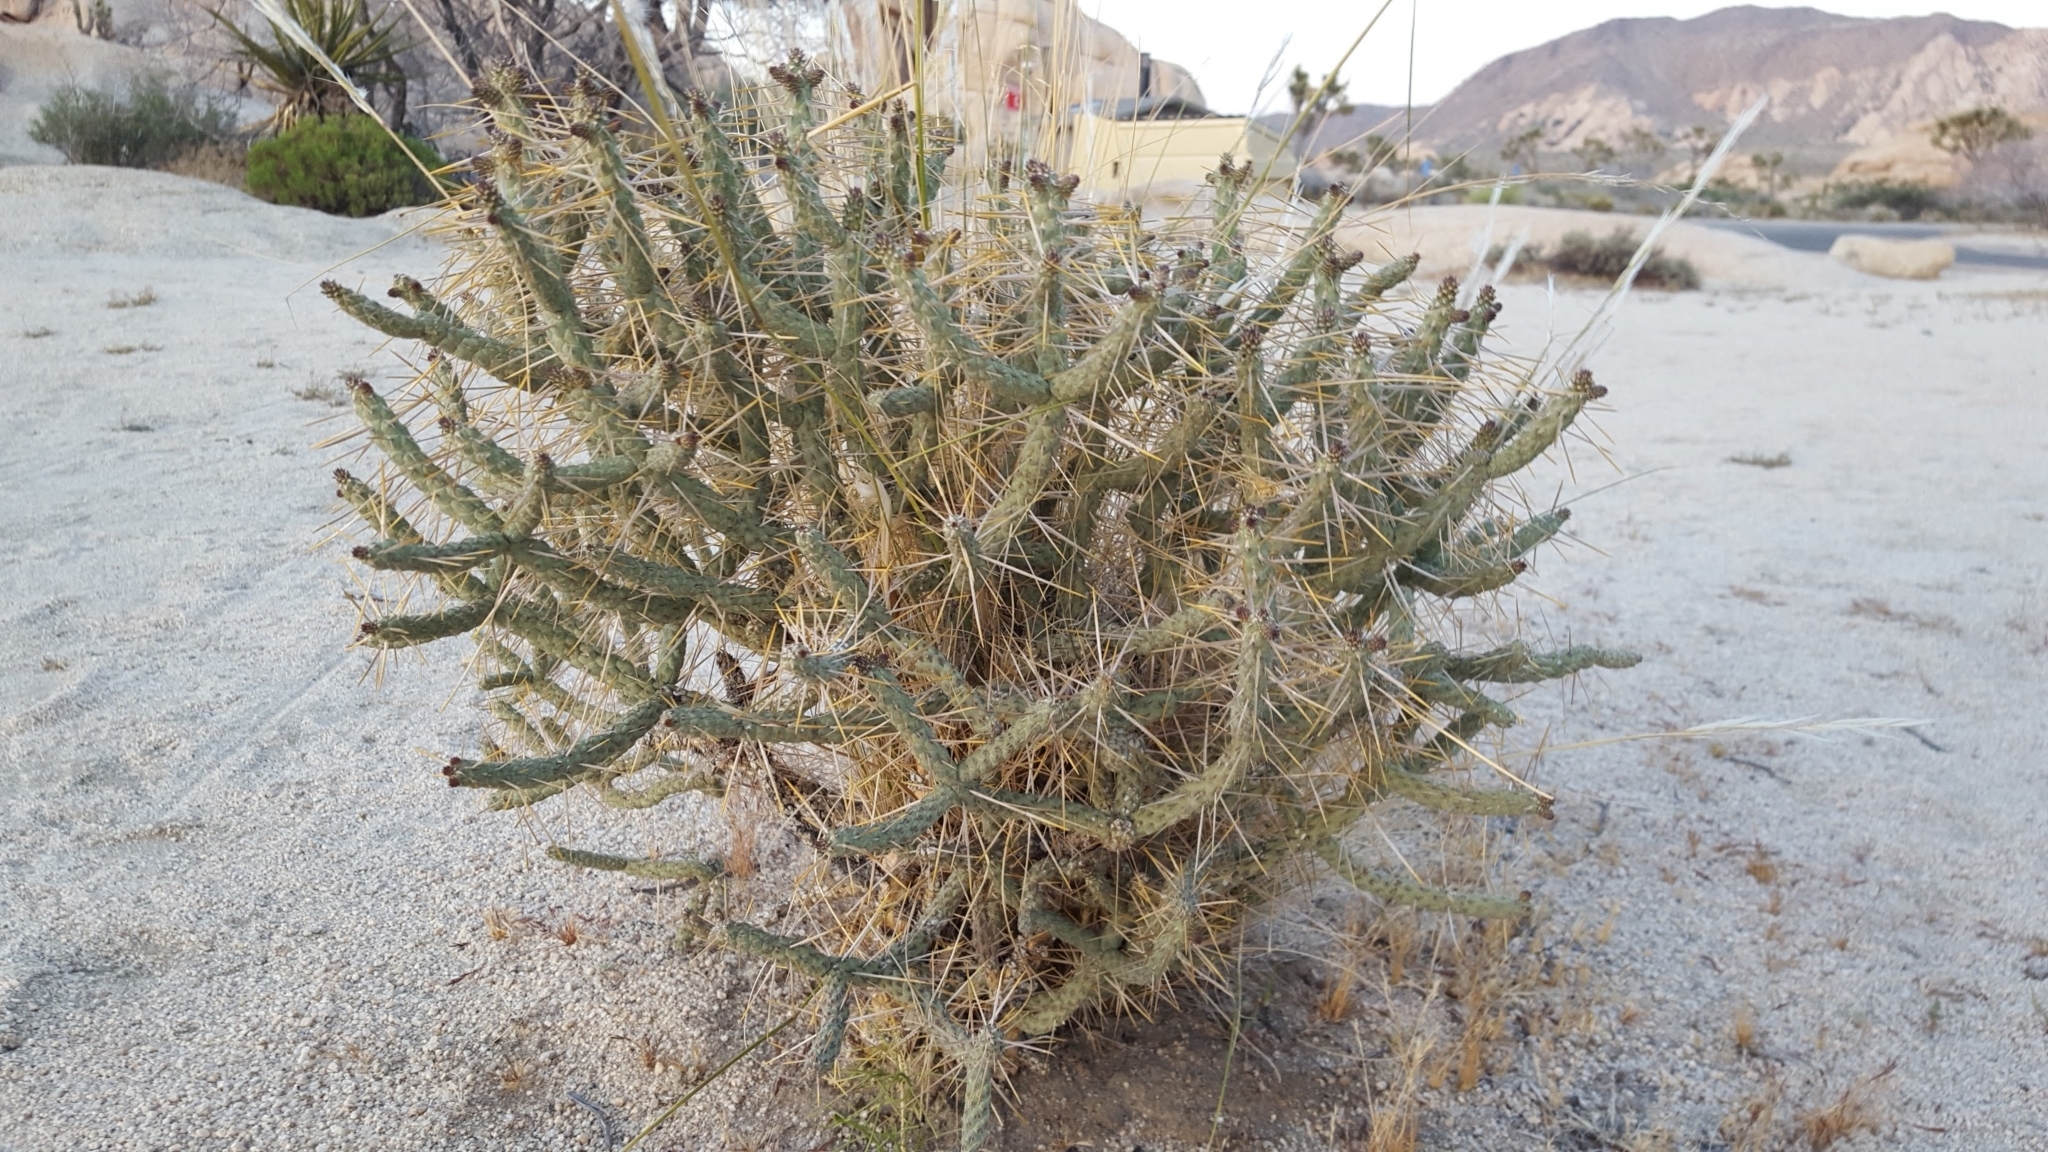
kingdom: Plantae
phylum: Tracheophyta
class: Magnoliopsida
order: Caryophyllales
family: Cactaceae
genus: Cylindropuntia
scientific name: Cylindropuntia ramosissima
